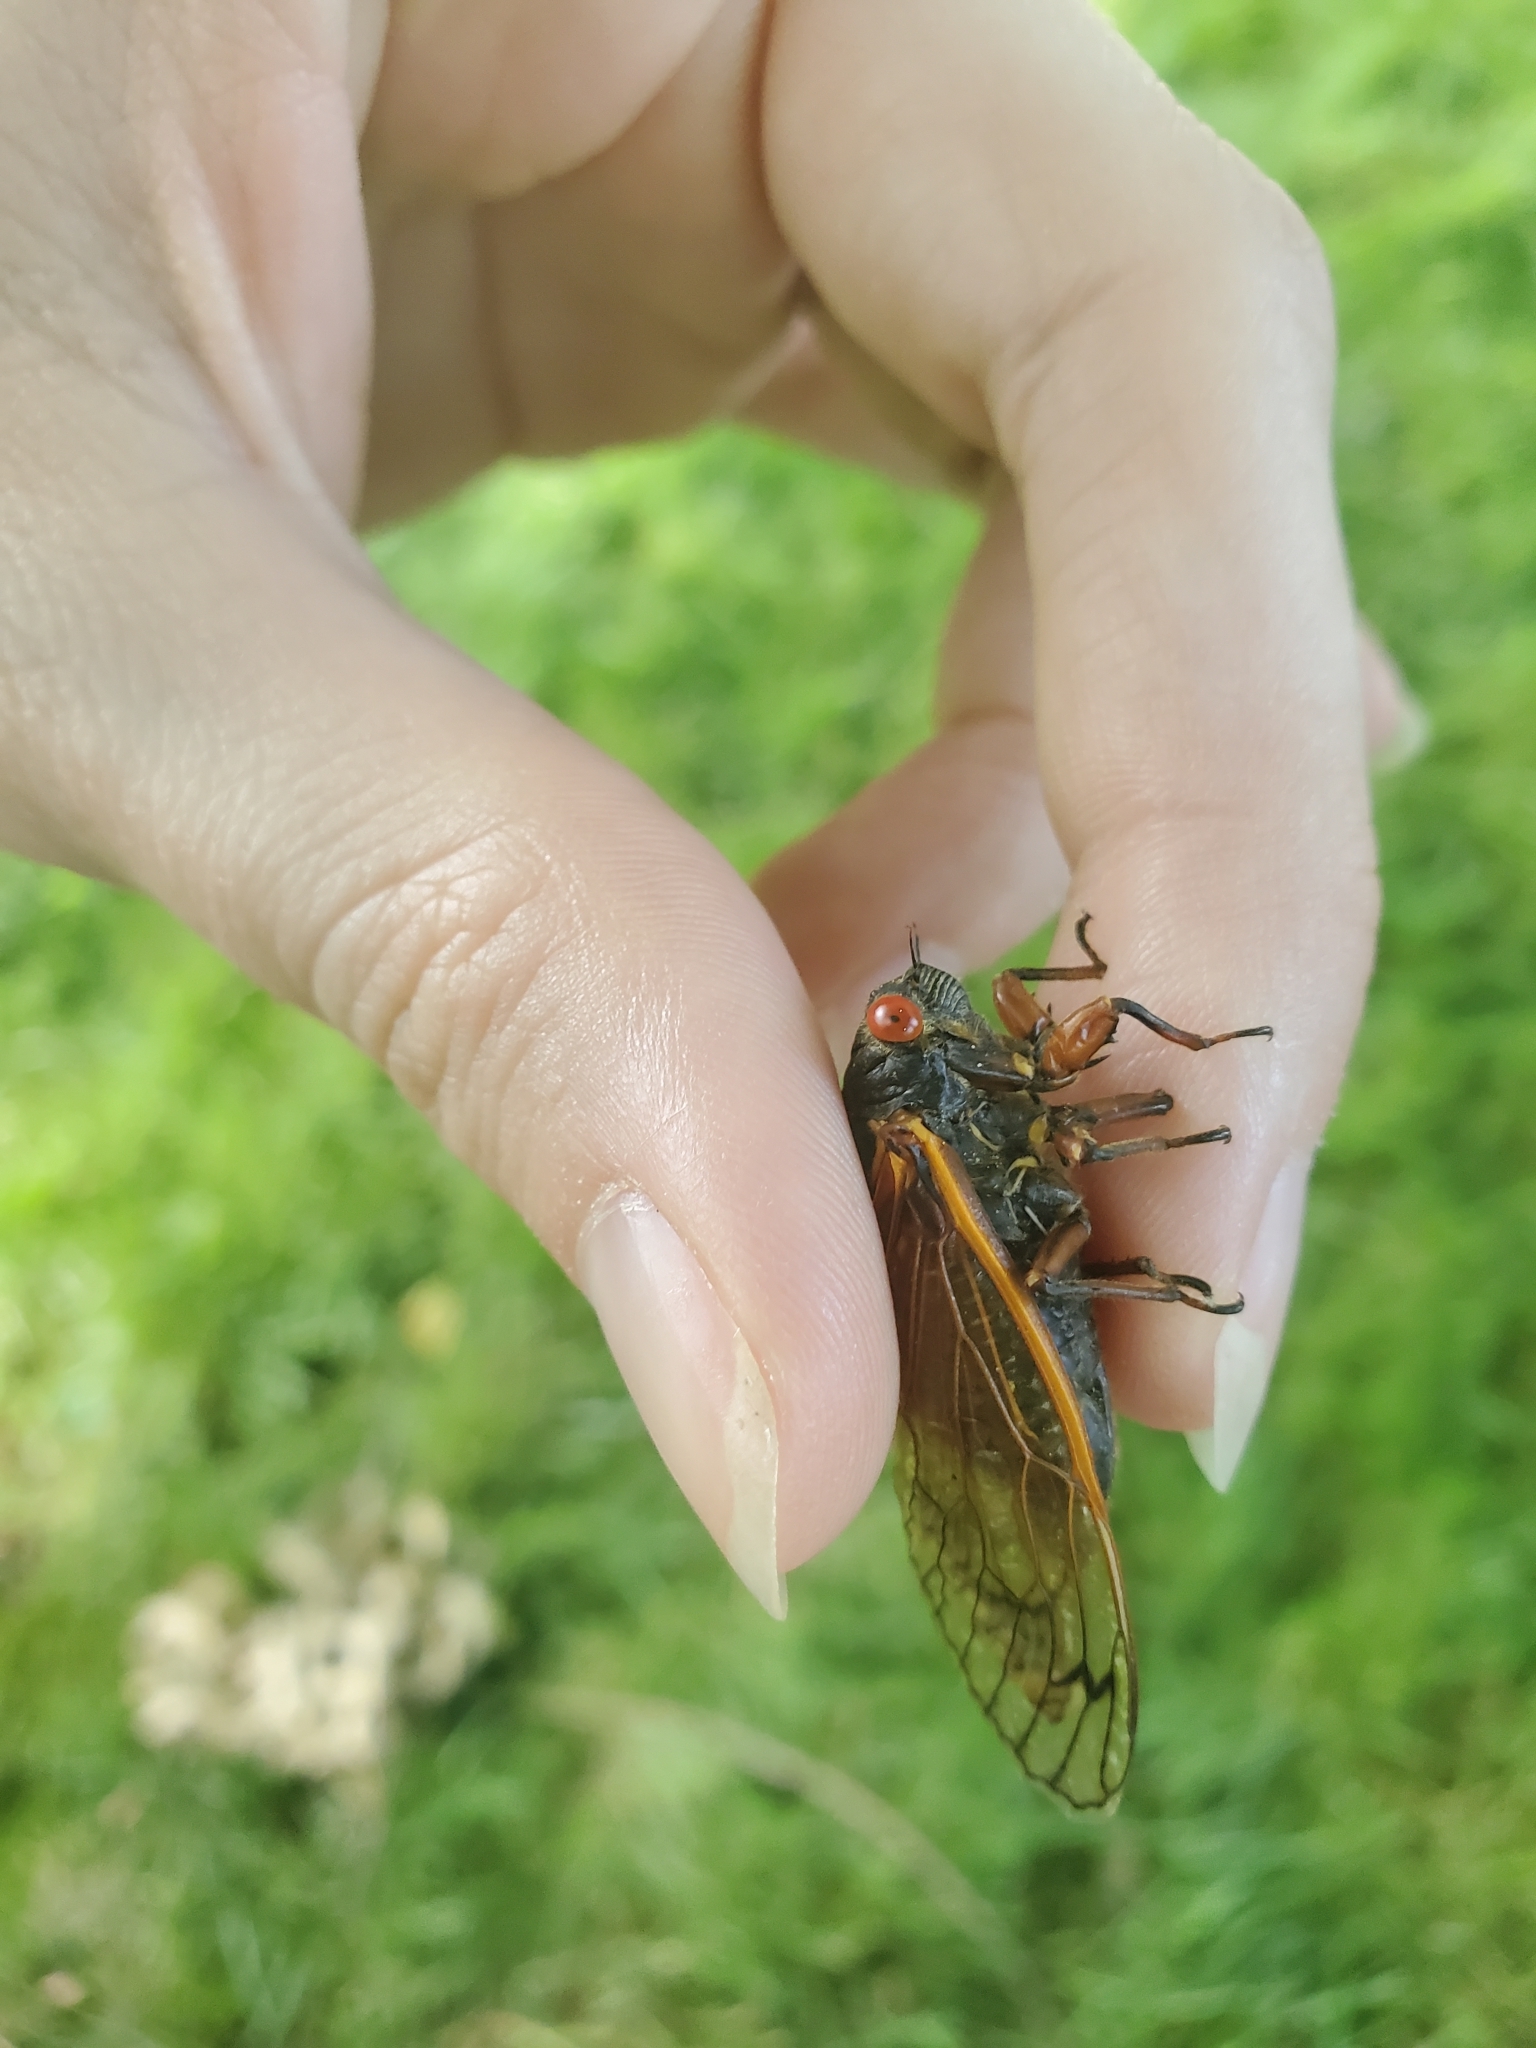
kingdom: Animalia
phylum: Arthropoda
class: Insecta
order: Hemiptera
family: Cicadidae
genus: Magicicada
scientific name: Magicicada cassini
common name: Cassin's 17-year cicada
